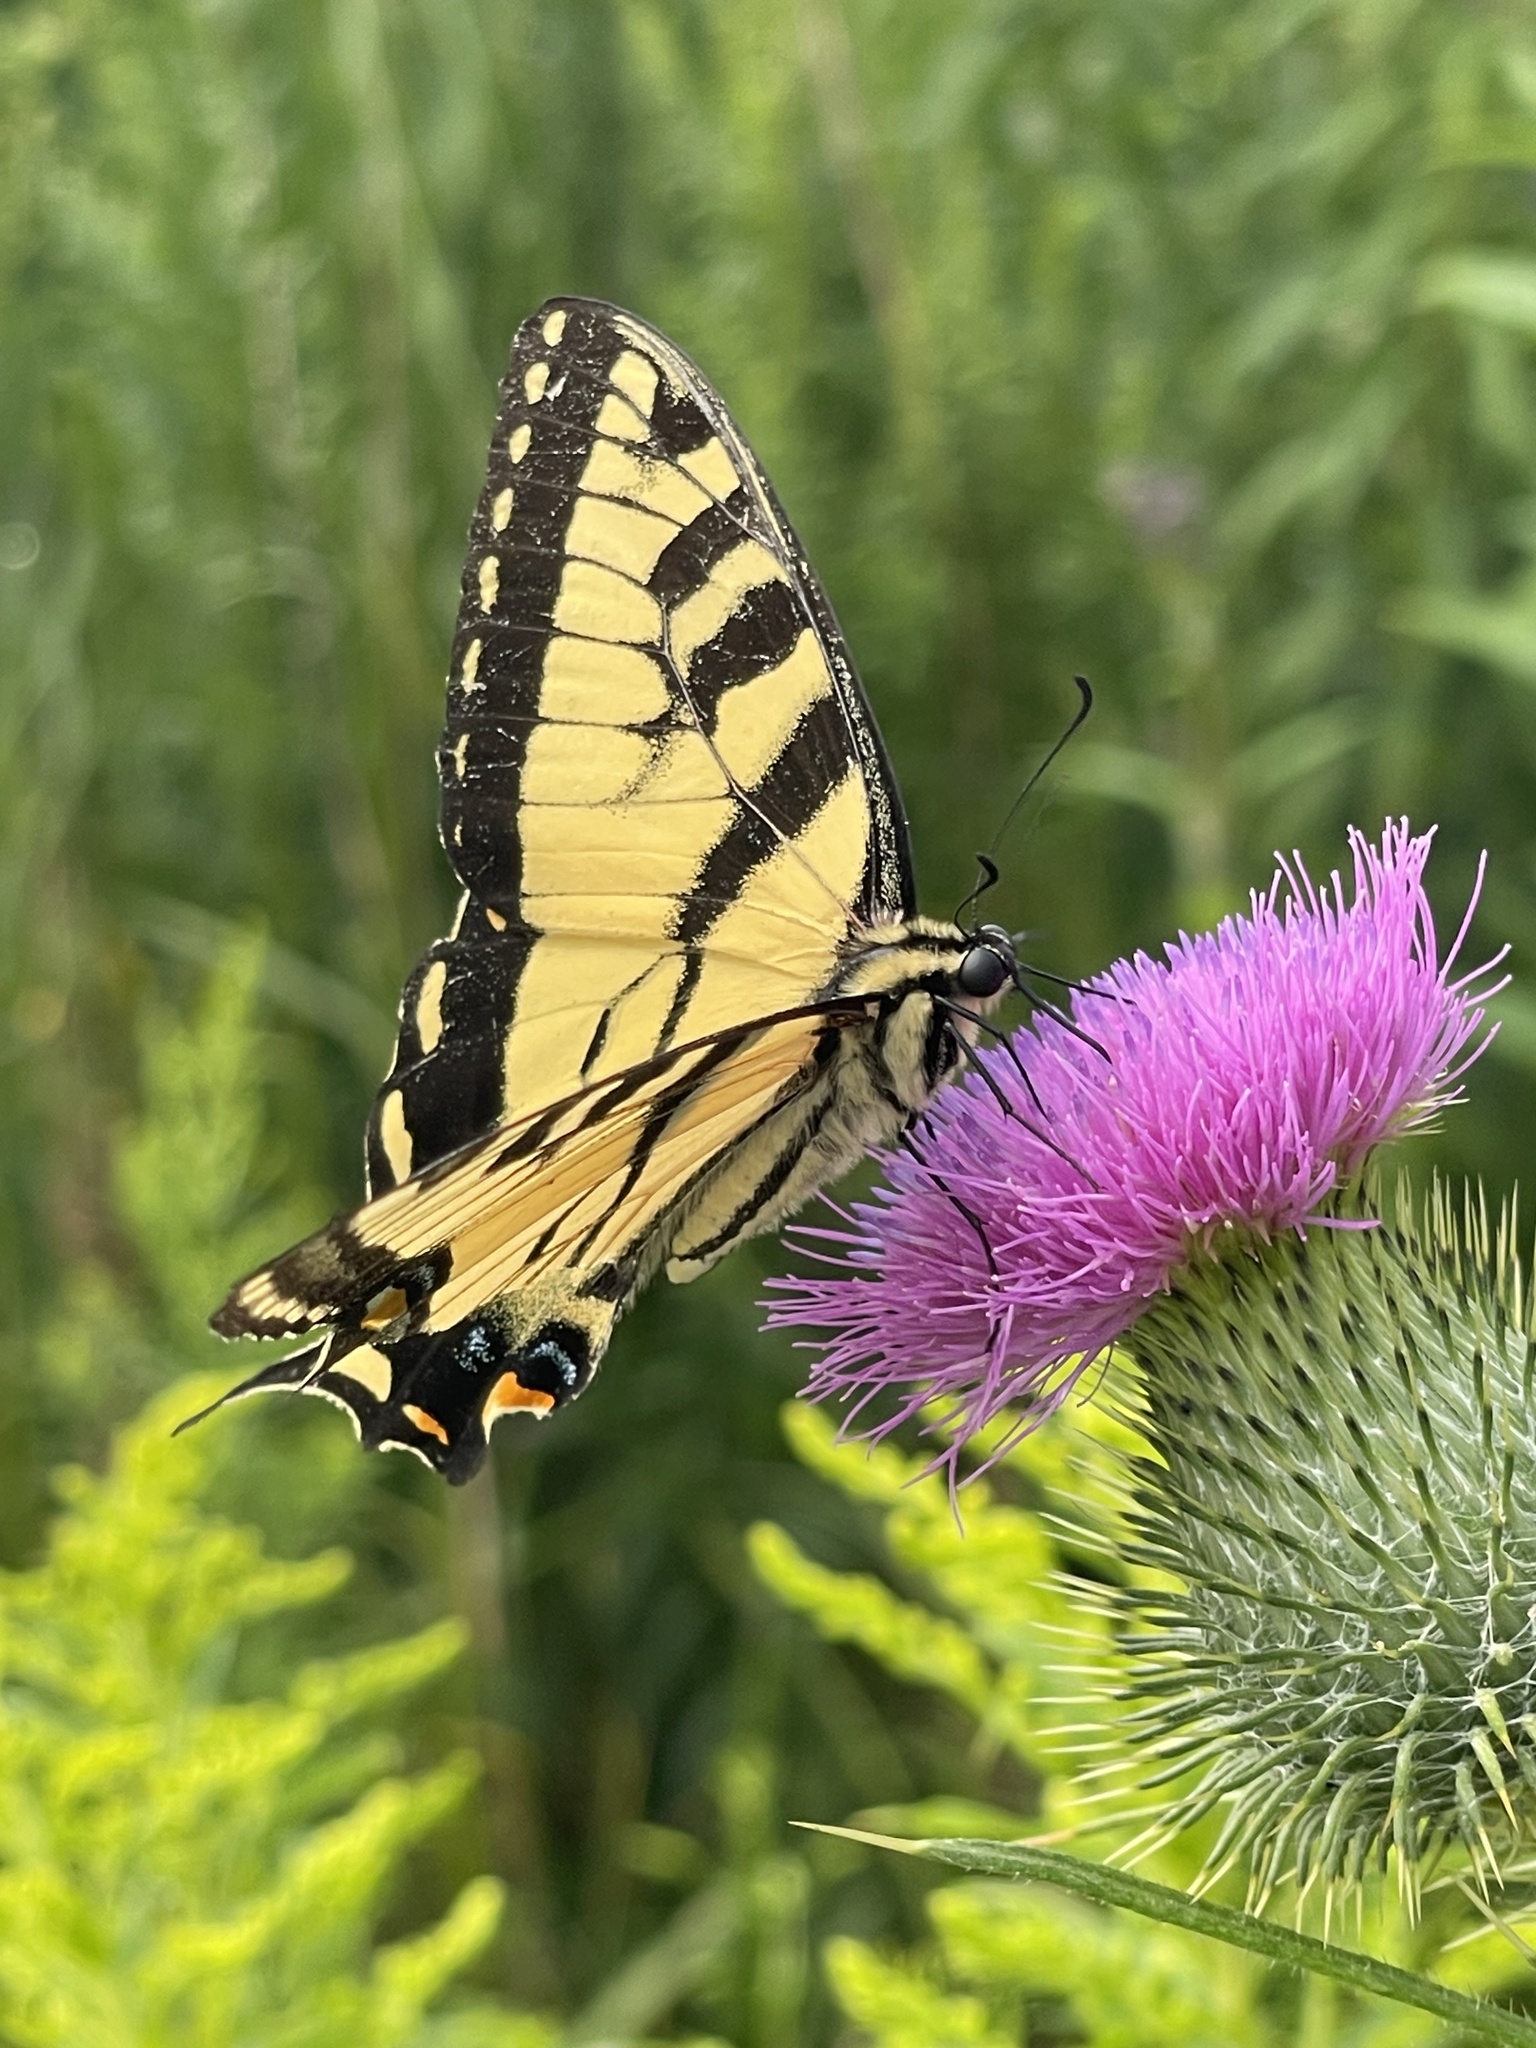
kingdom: Animalia
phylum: Arthropoda
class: Insecta
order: Lepidoptera
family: Papilionidae
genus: Papilio
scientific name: Papilio glaucus
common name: Tiger swallowtail
